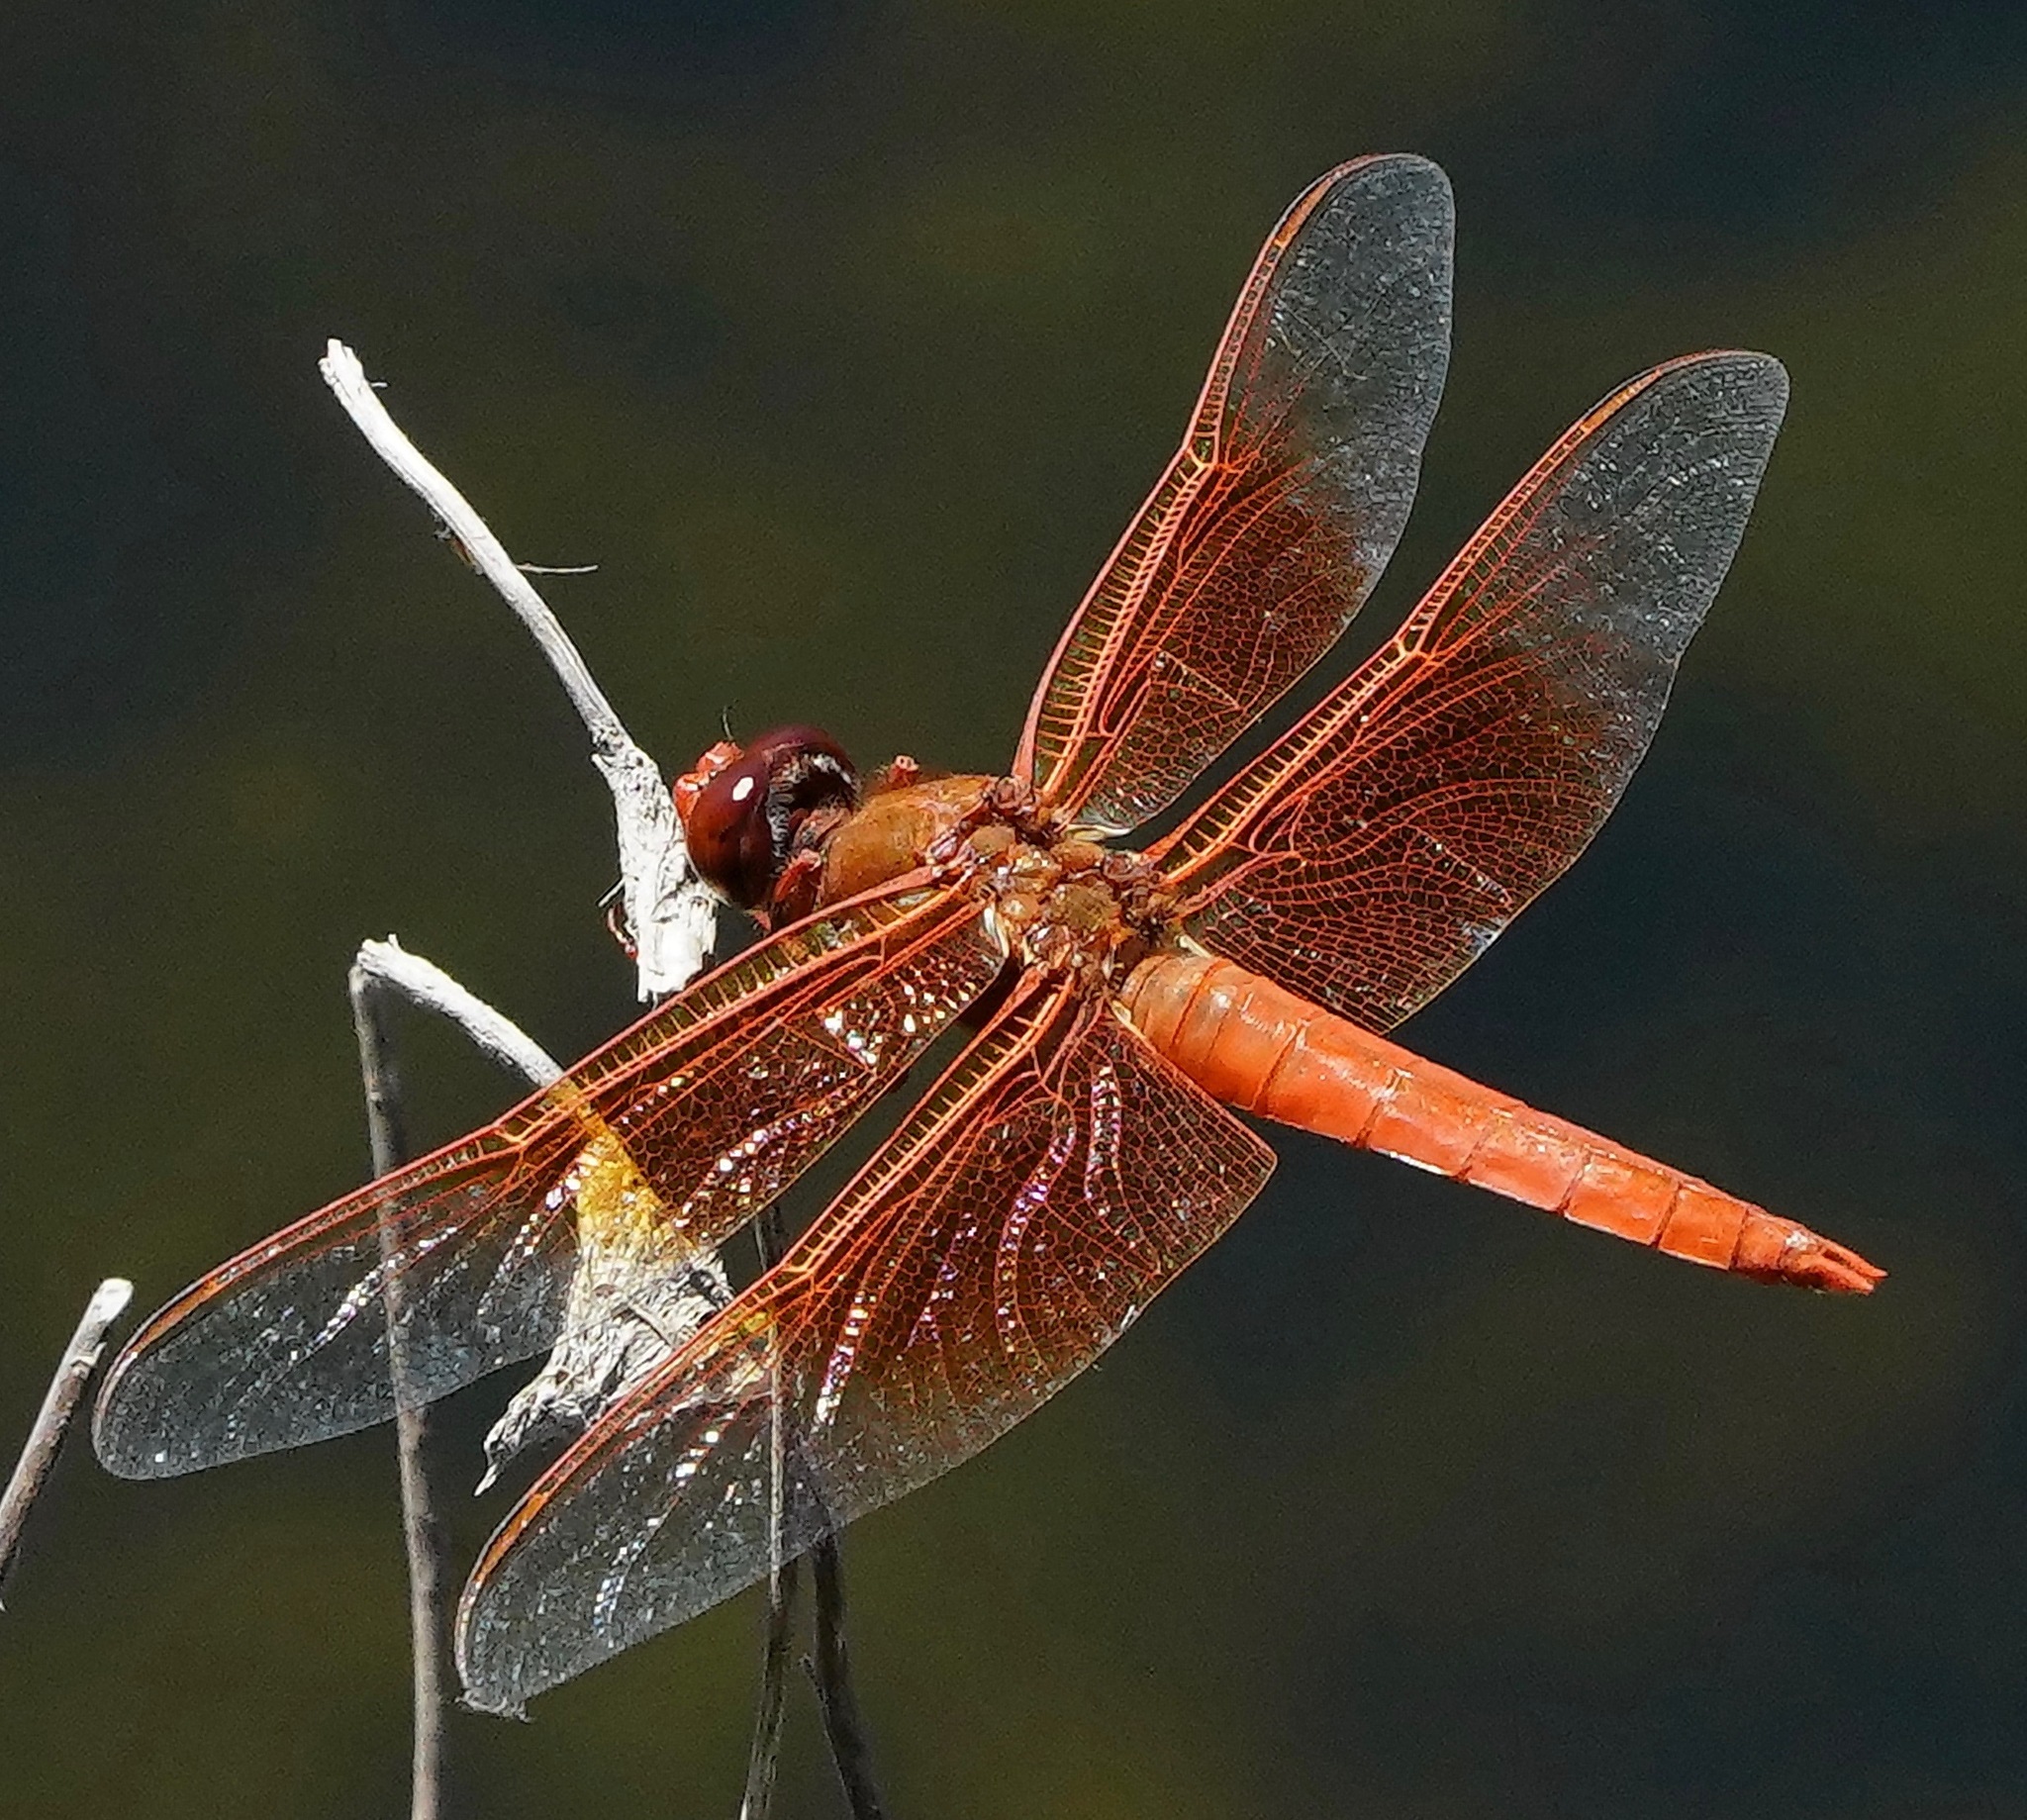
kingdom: Animalia
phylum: Arthropoda
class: Insecta
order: Odonata
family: Libellulidae
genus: Libellula
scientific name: Libellula saturata
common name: Flame skimmer
